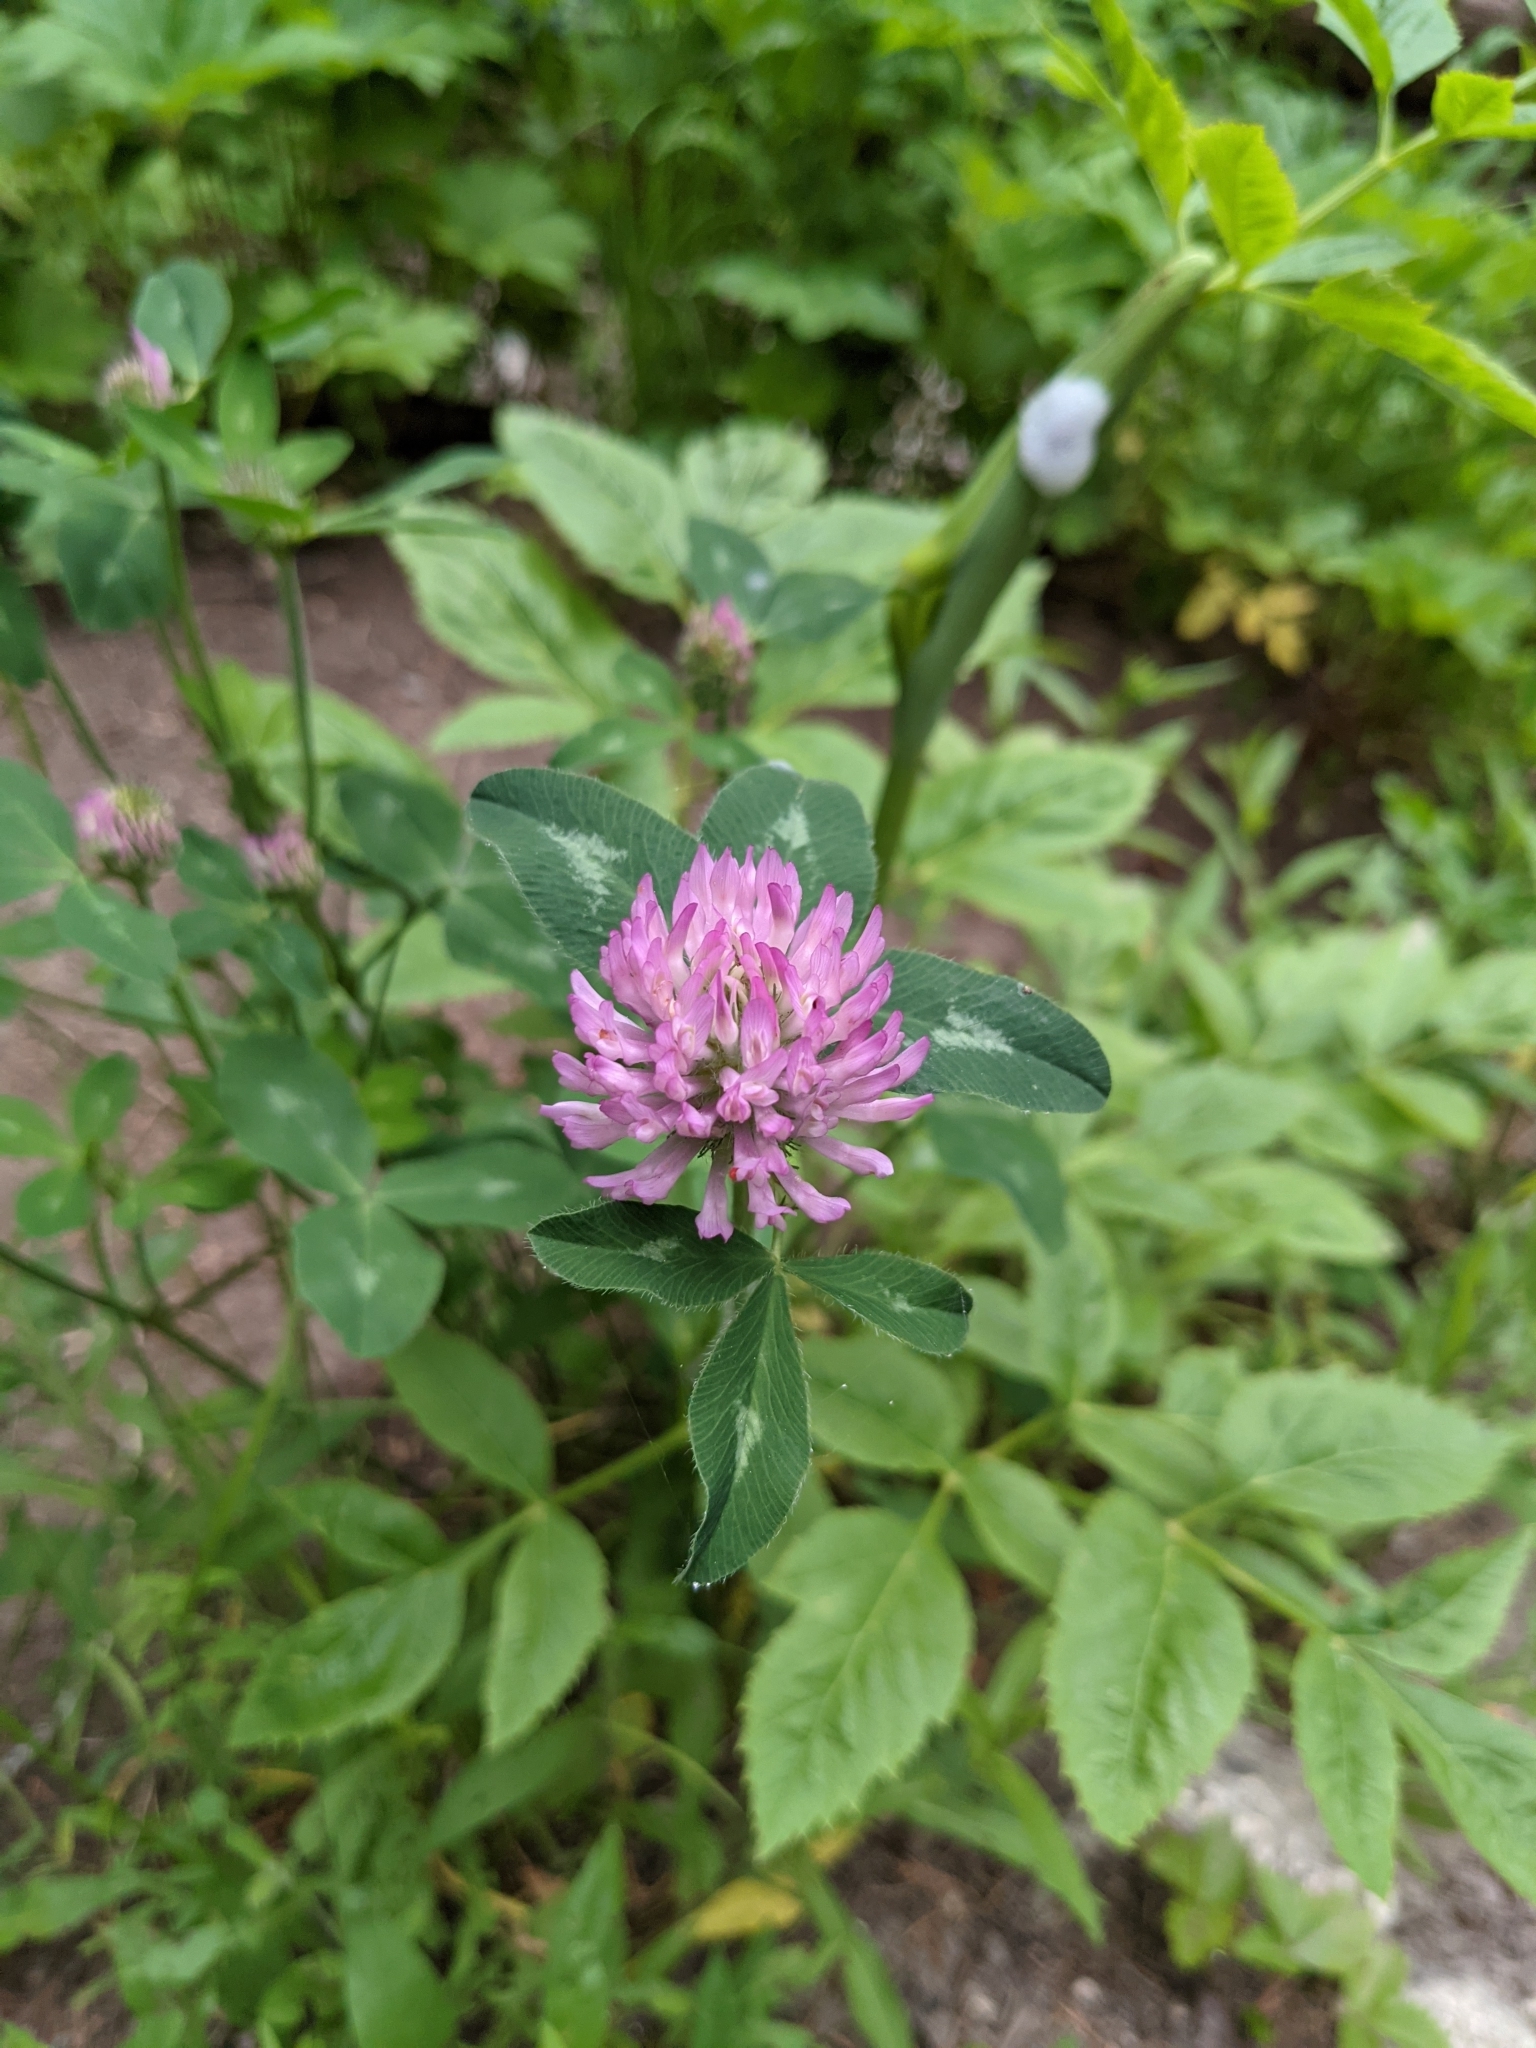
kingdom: Plantae
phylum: Tracheophyta
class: Magnoliopsida
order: Fabales
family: Fabaceae
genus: Trifolium
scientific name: Trifolium pratense
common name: Red clover
